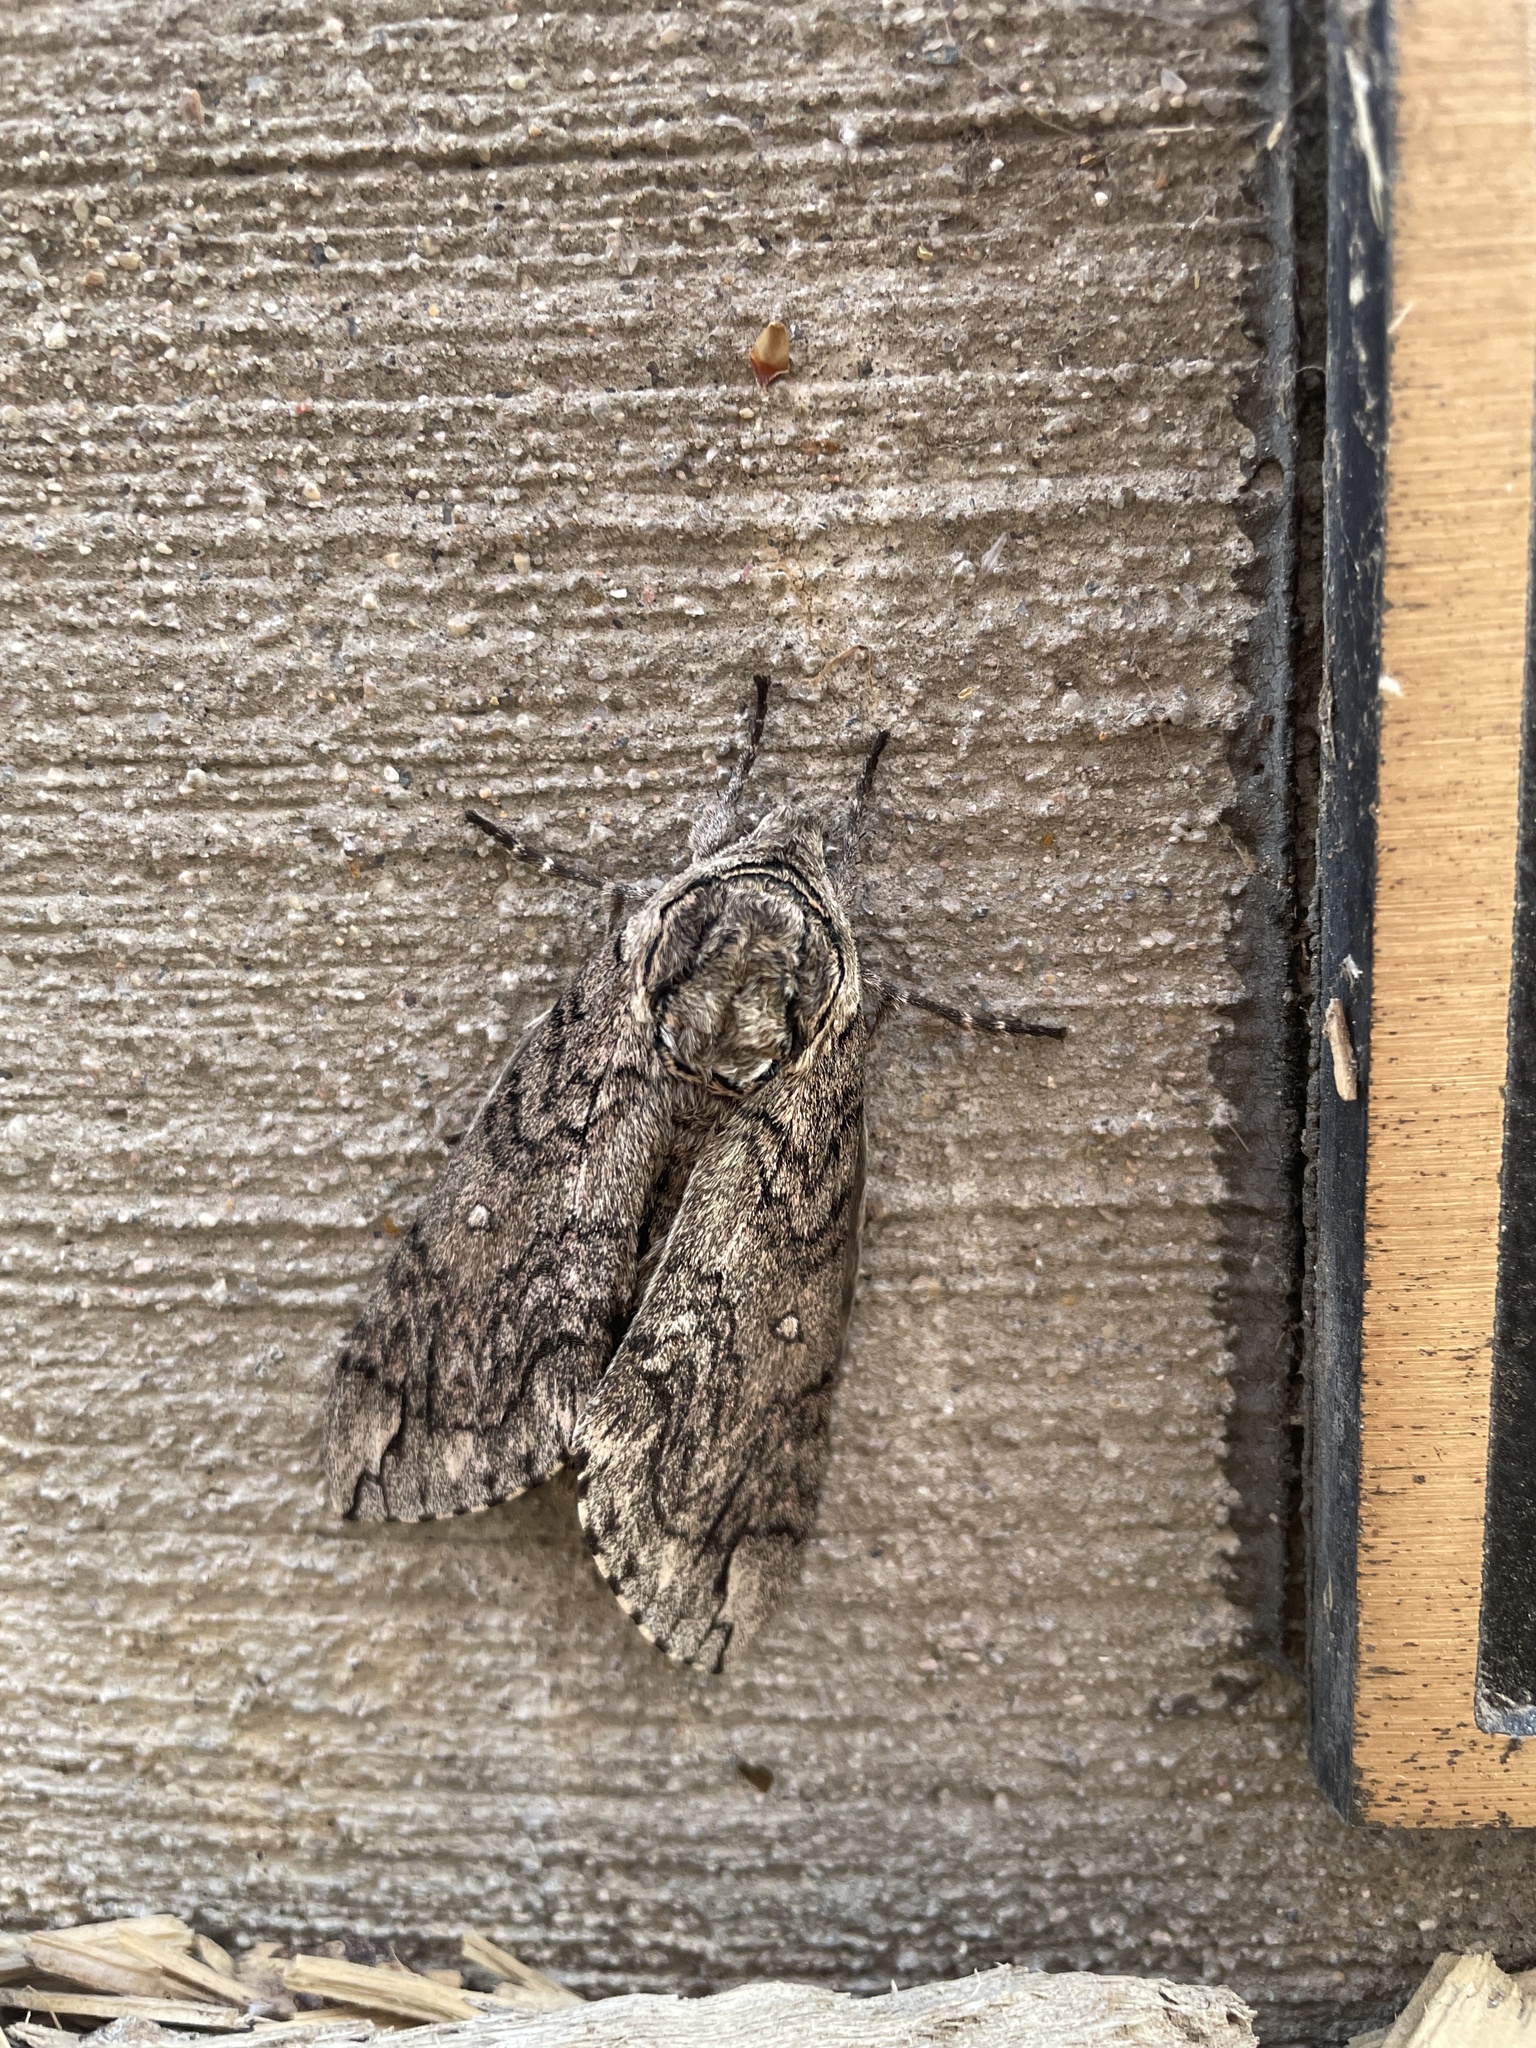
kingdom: Animalia
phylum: Arthropoda
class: Insecta
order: Lepidoptera
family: Sphingidae
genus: Ceratomia
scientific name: Ceratomia undulosa
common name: Waved sphinx
